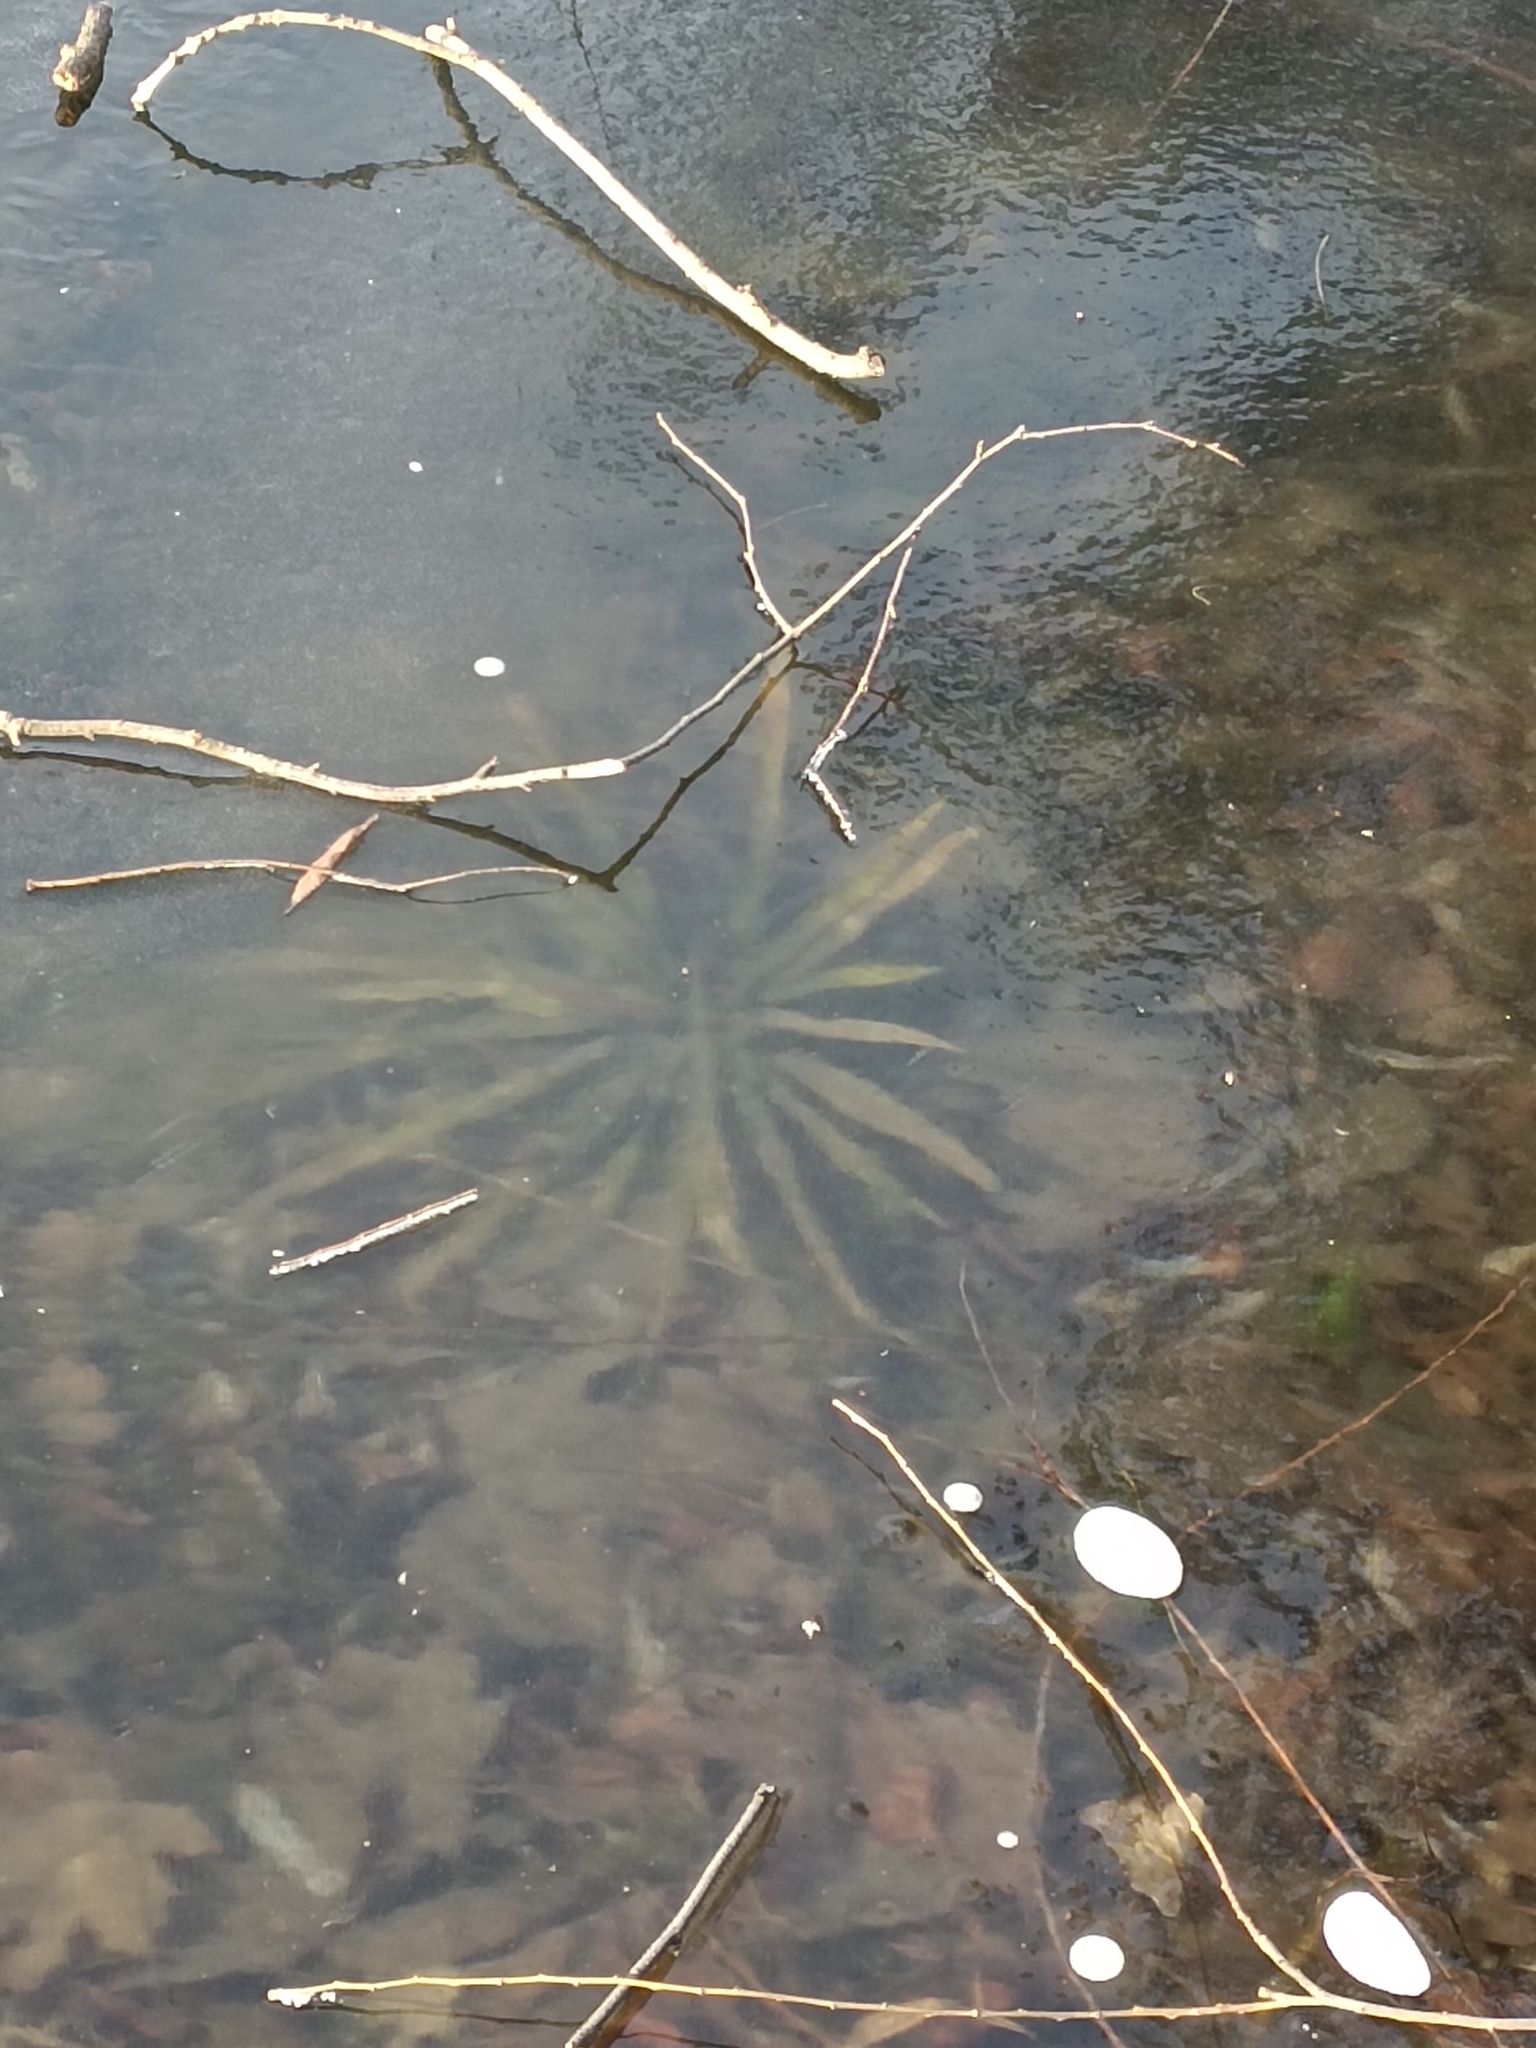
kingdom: Plantae
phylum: Tracheophyta
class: Liliopsida
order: Alismatales
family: Hydrocharitaceae
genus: Stratiotes
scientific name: Stratiotes aloides
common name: Water-soldier
